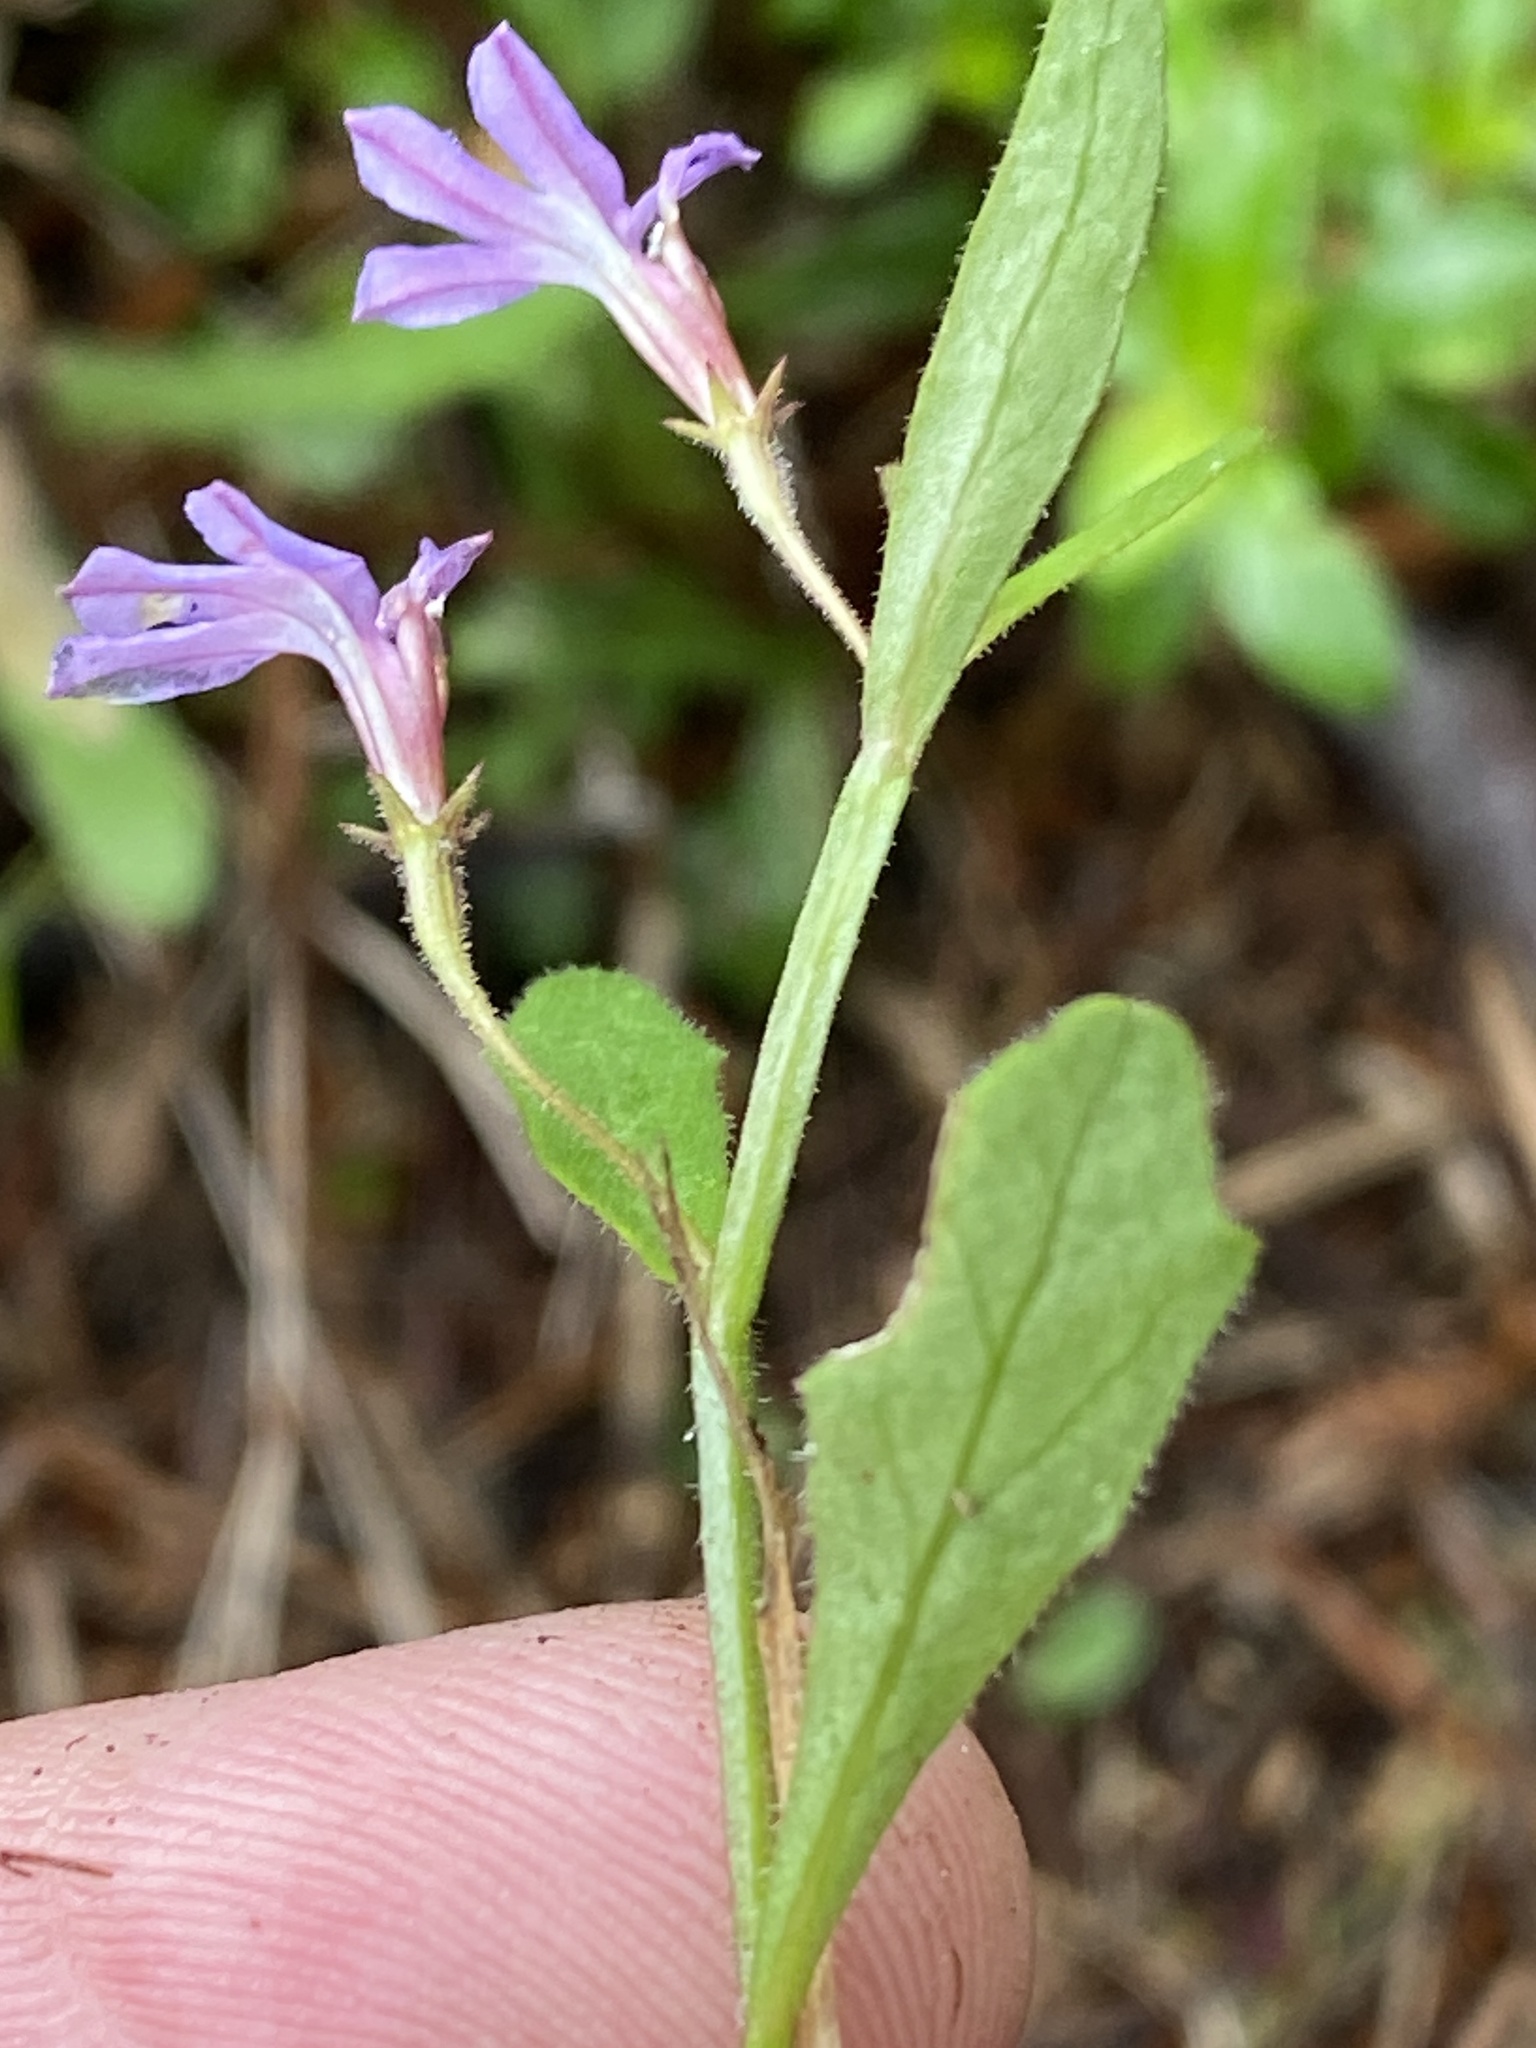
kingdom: Plantae
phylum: Tracheophyta
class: Magnoliopsida
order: Asterales
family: Campanulaceae
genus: Lobelia
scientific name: Lobelia anceps
